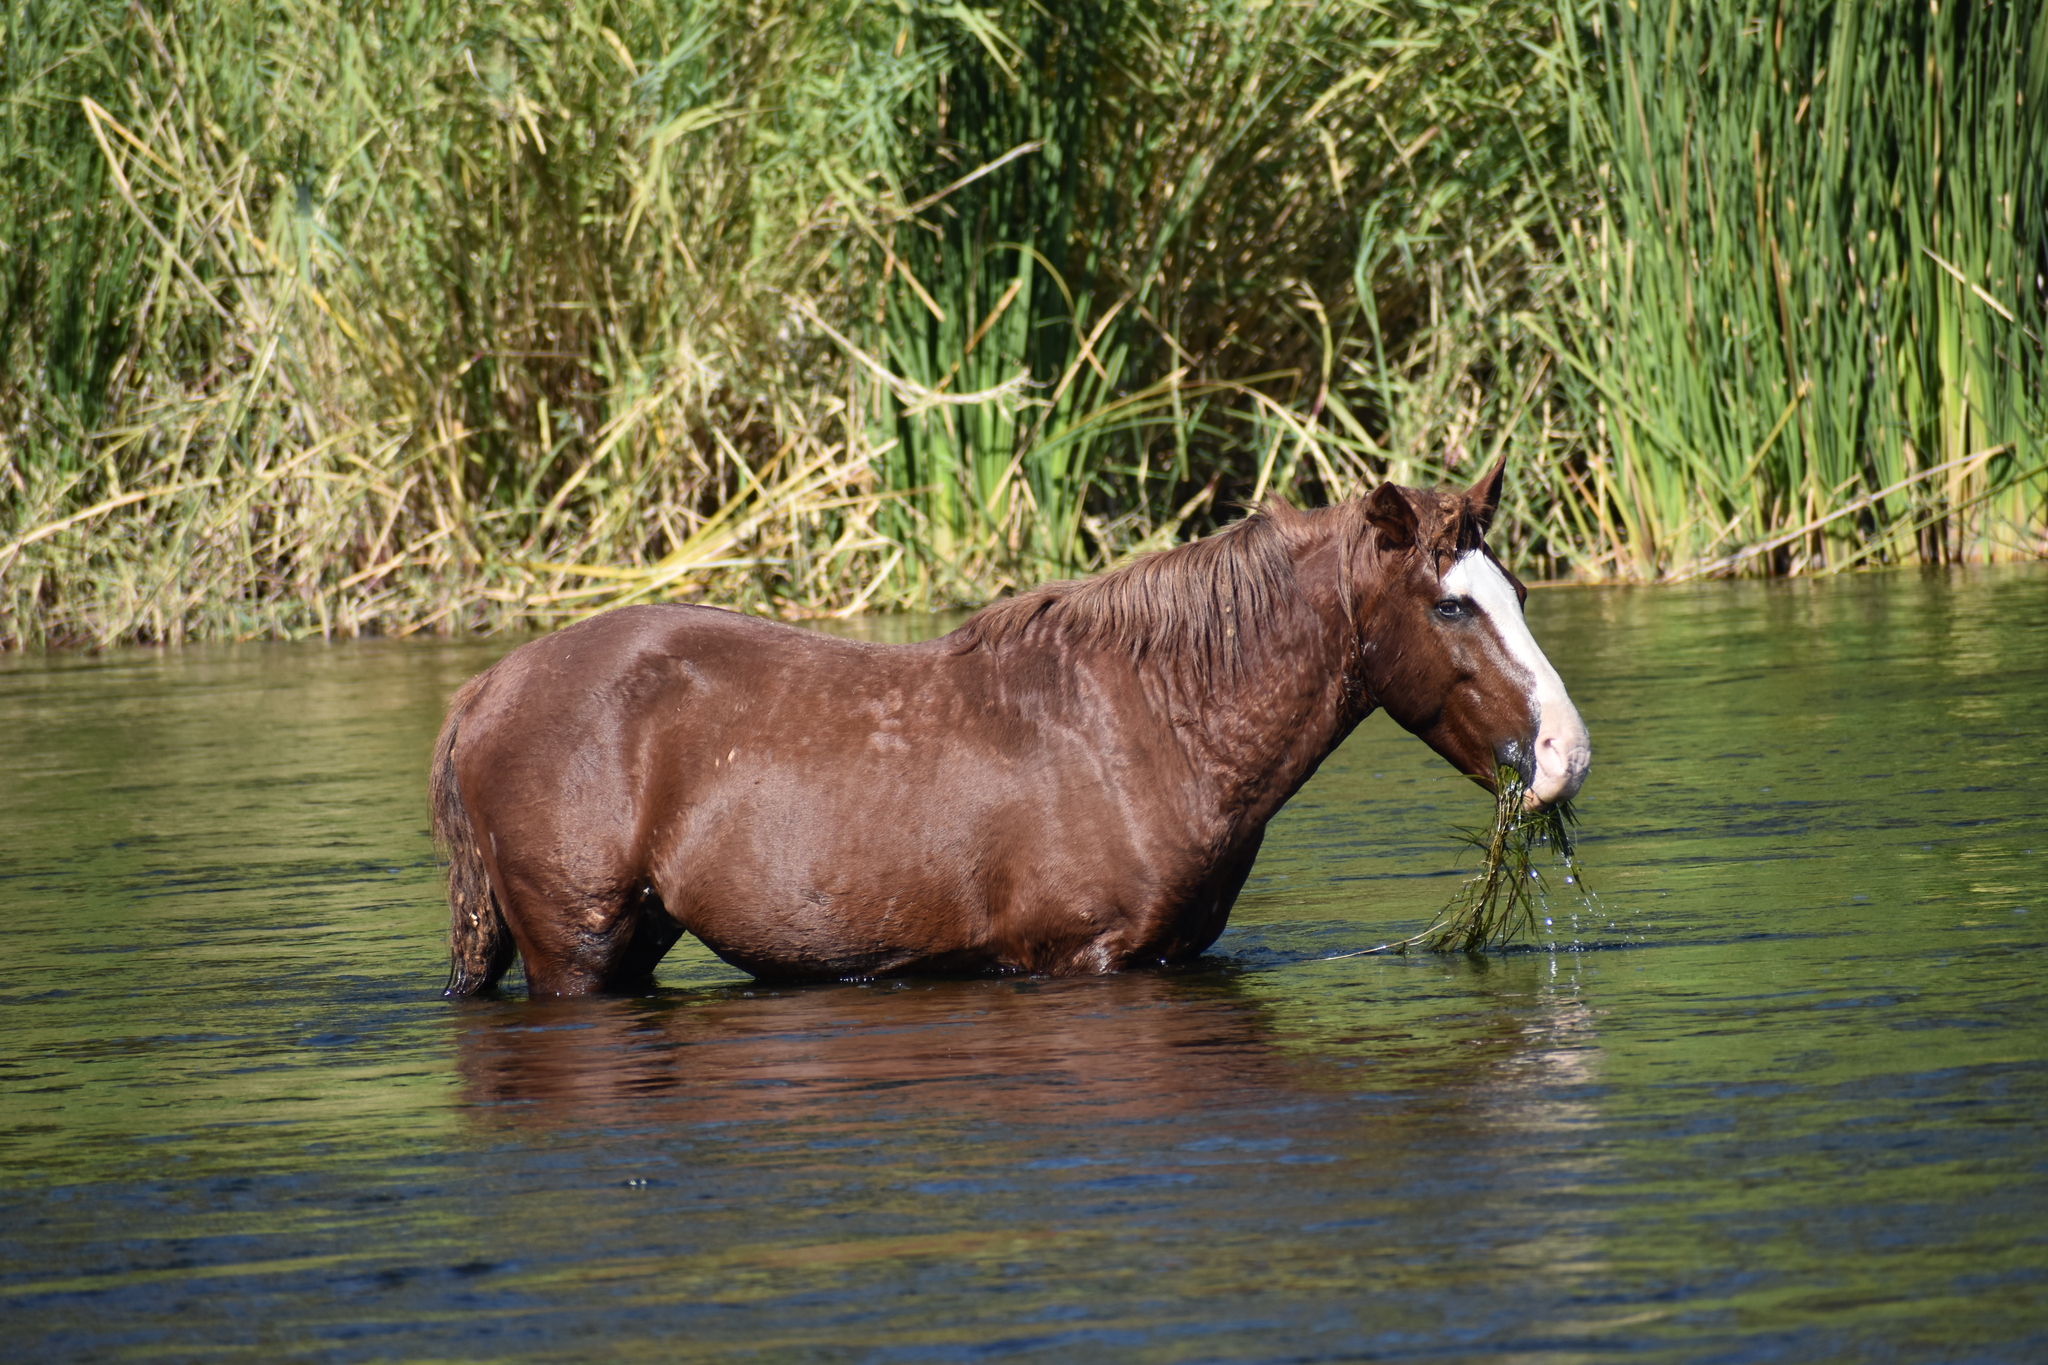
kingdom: Animalia
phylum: Chordata
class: Mammalia
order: Perissodactyla
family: Equidae
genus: Equus
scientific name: Equus caballus
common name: Horse
